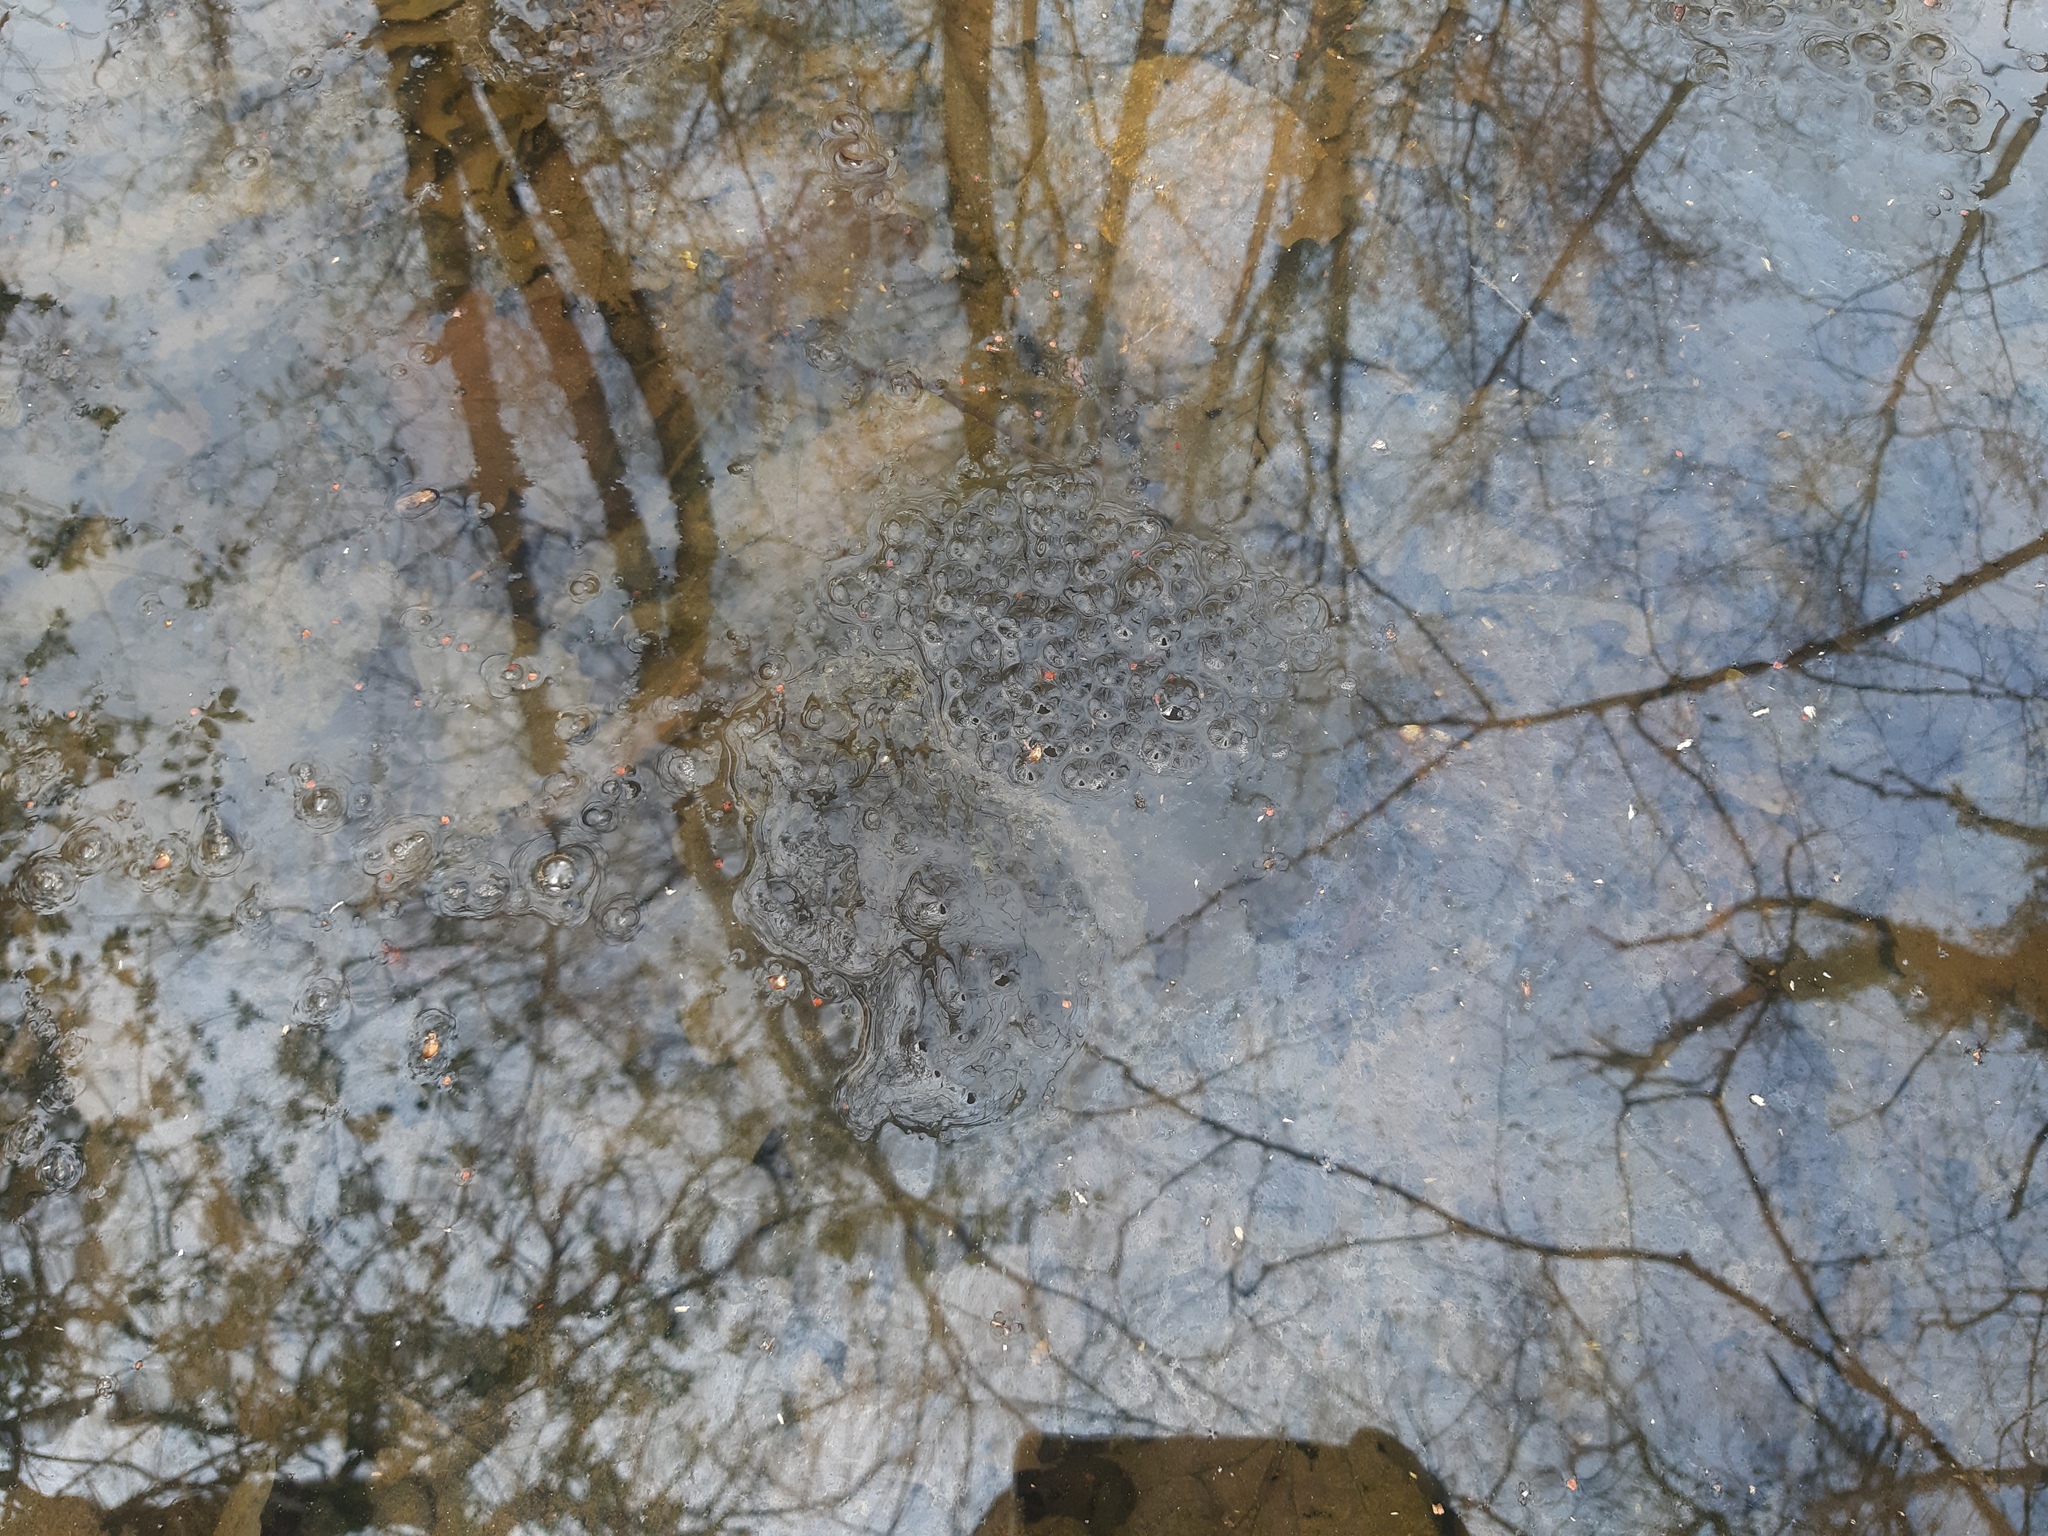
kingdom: Animalia
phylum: Chordata
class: Amphibia
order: Anura
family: Ranidae
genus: Rana
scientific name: Rana dalmatina
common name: Agile frog
